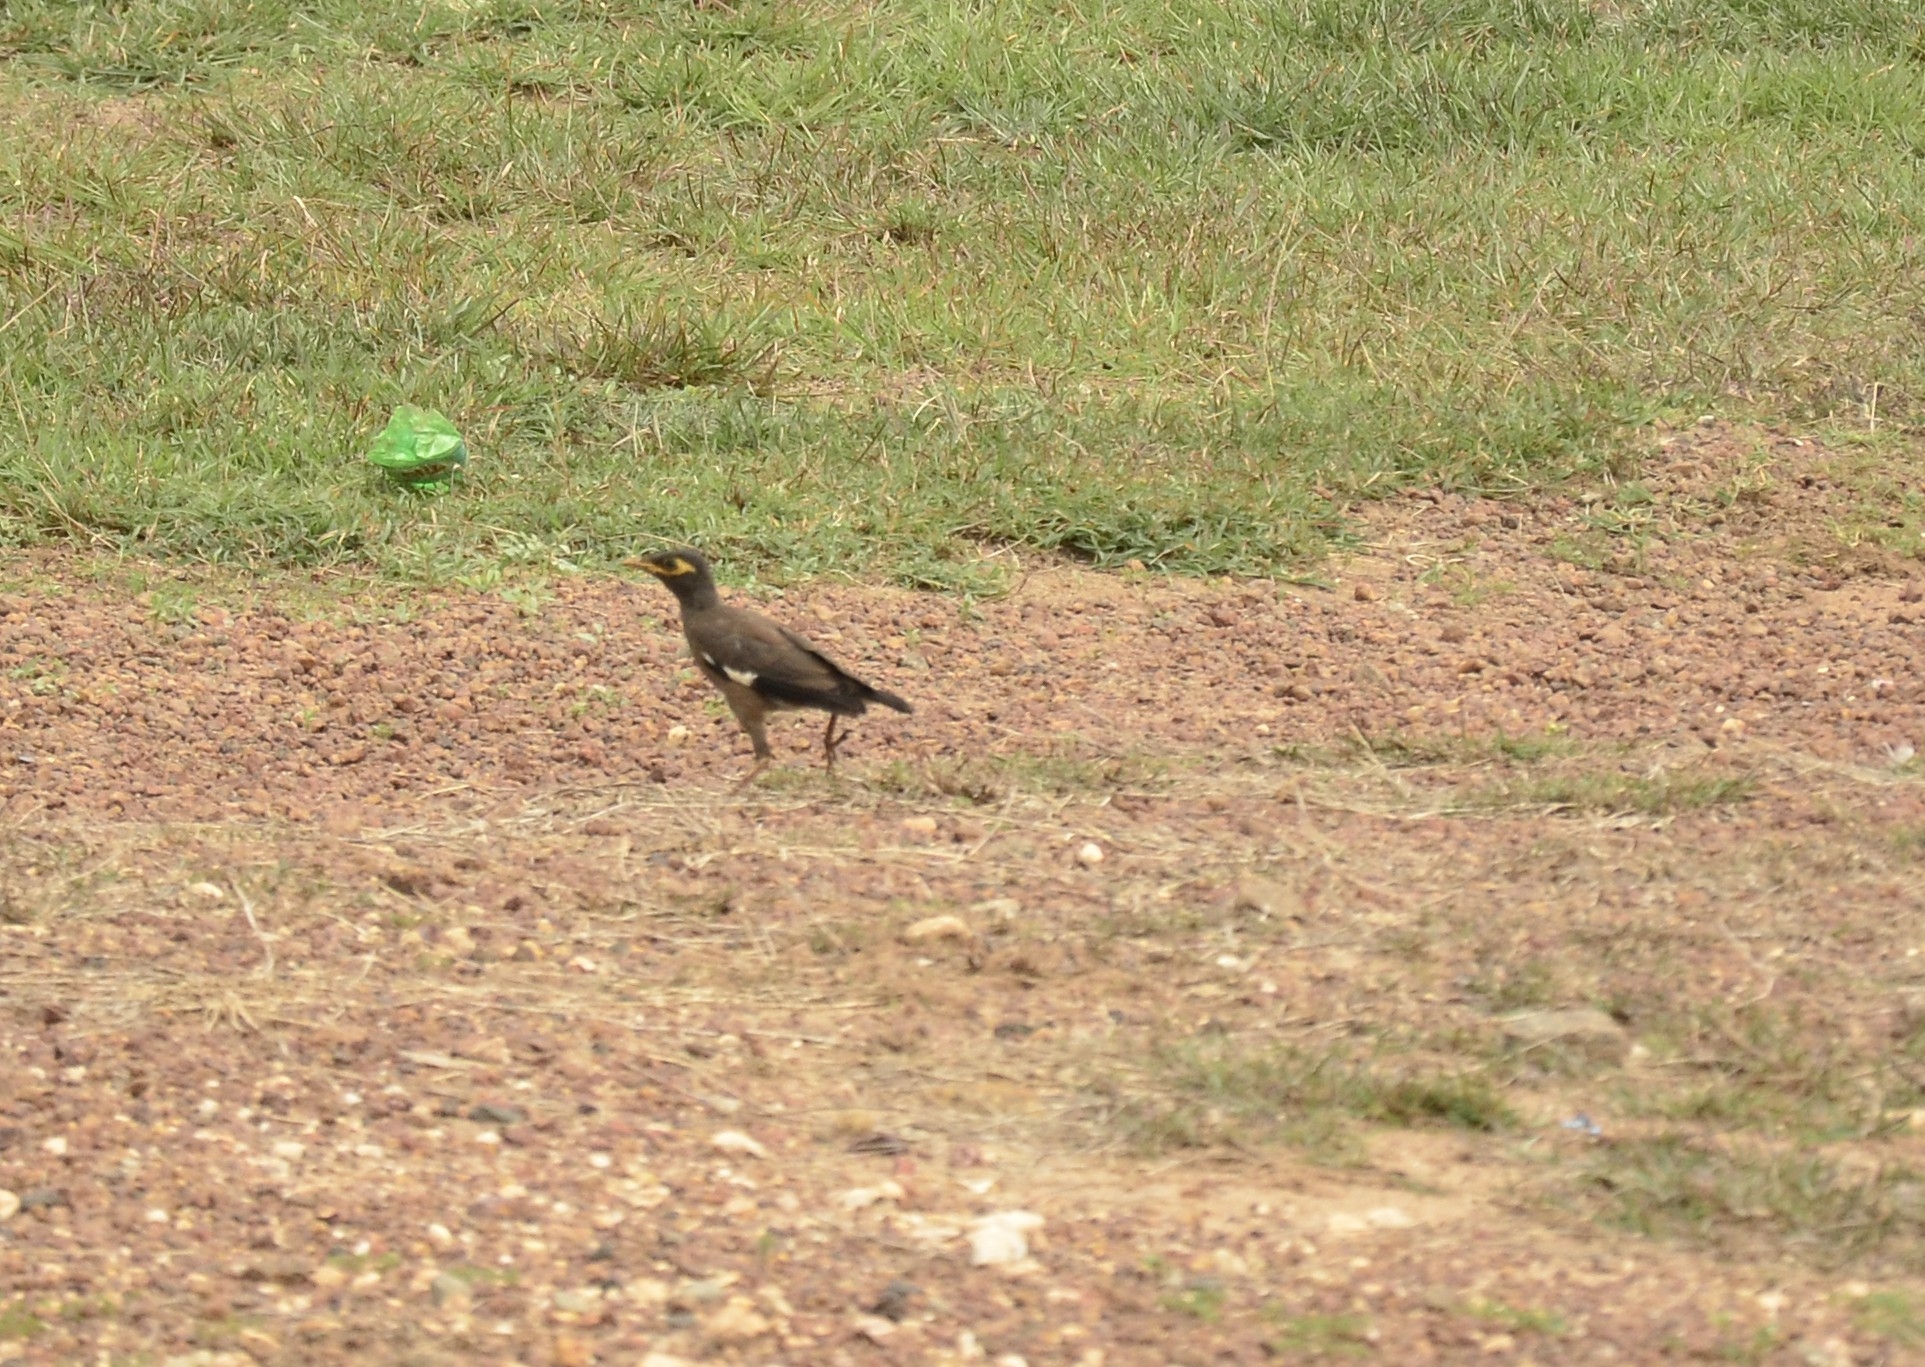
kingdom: Animalia
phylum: Chordata
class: Aves
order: Passeriformes
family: Sturnidae
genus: Acridotheres
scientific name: Acridotheres tristis
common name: Common myna
